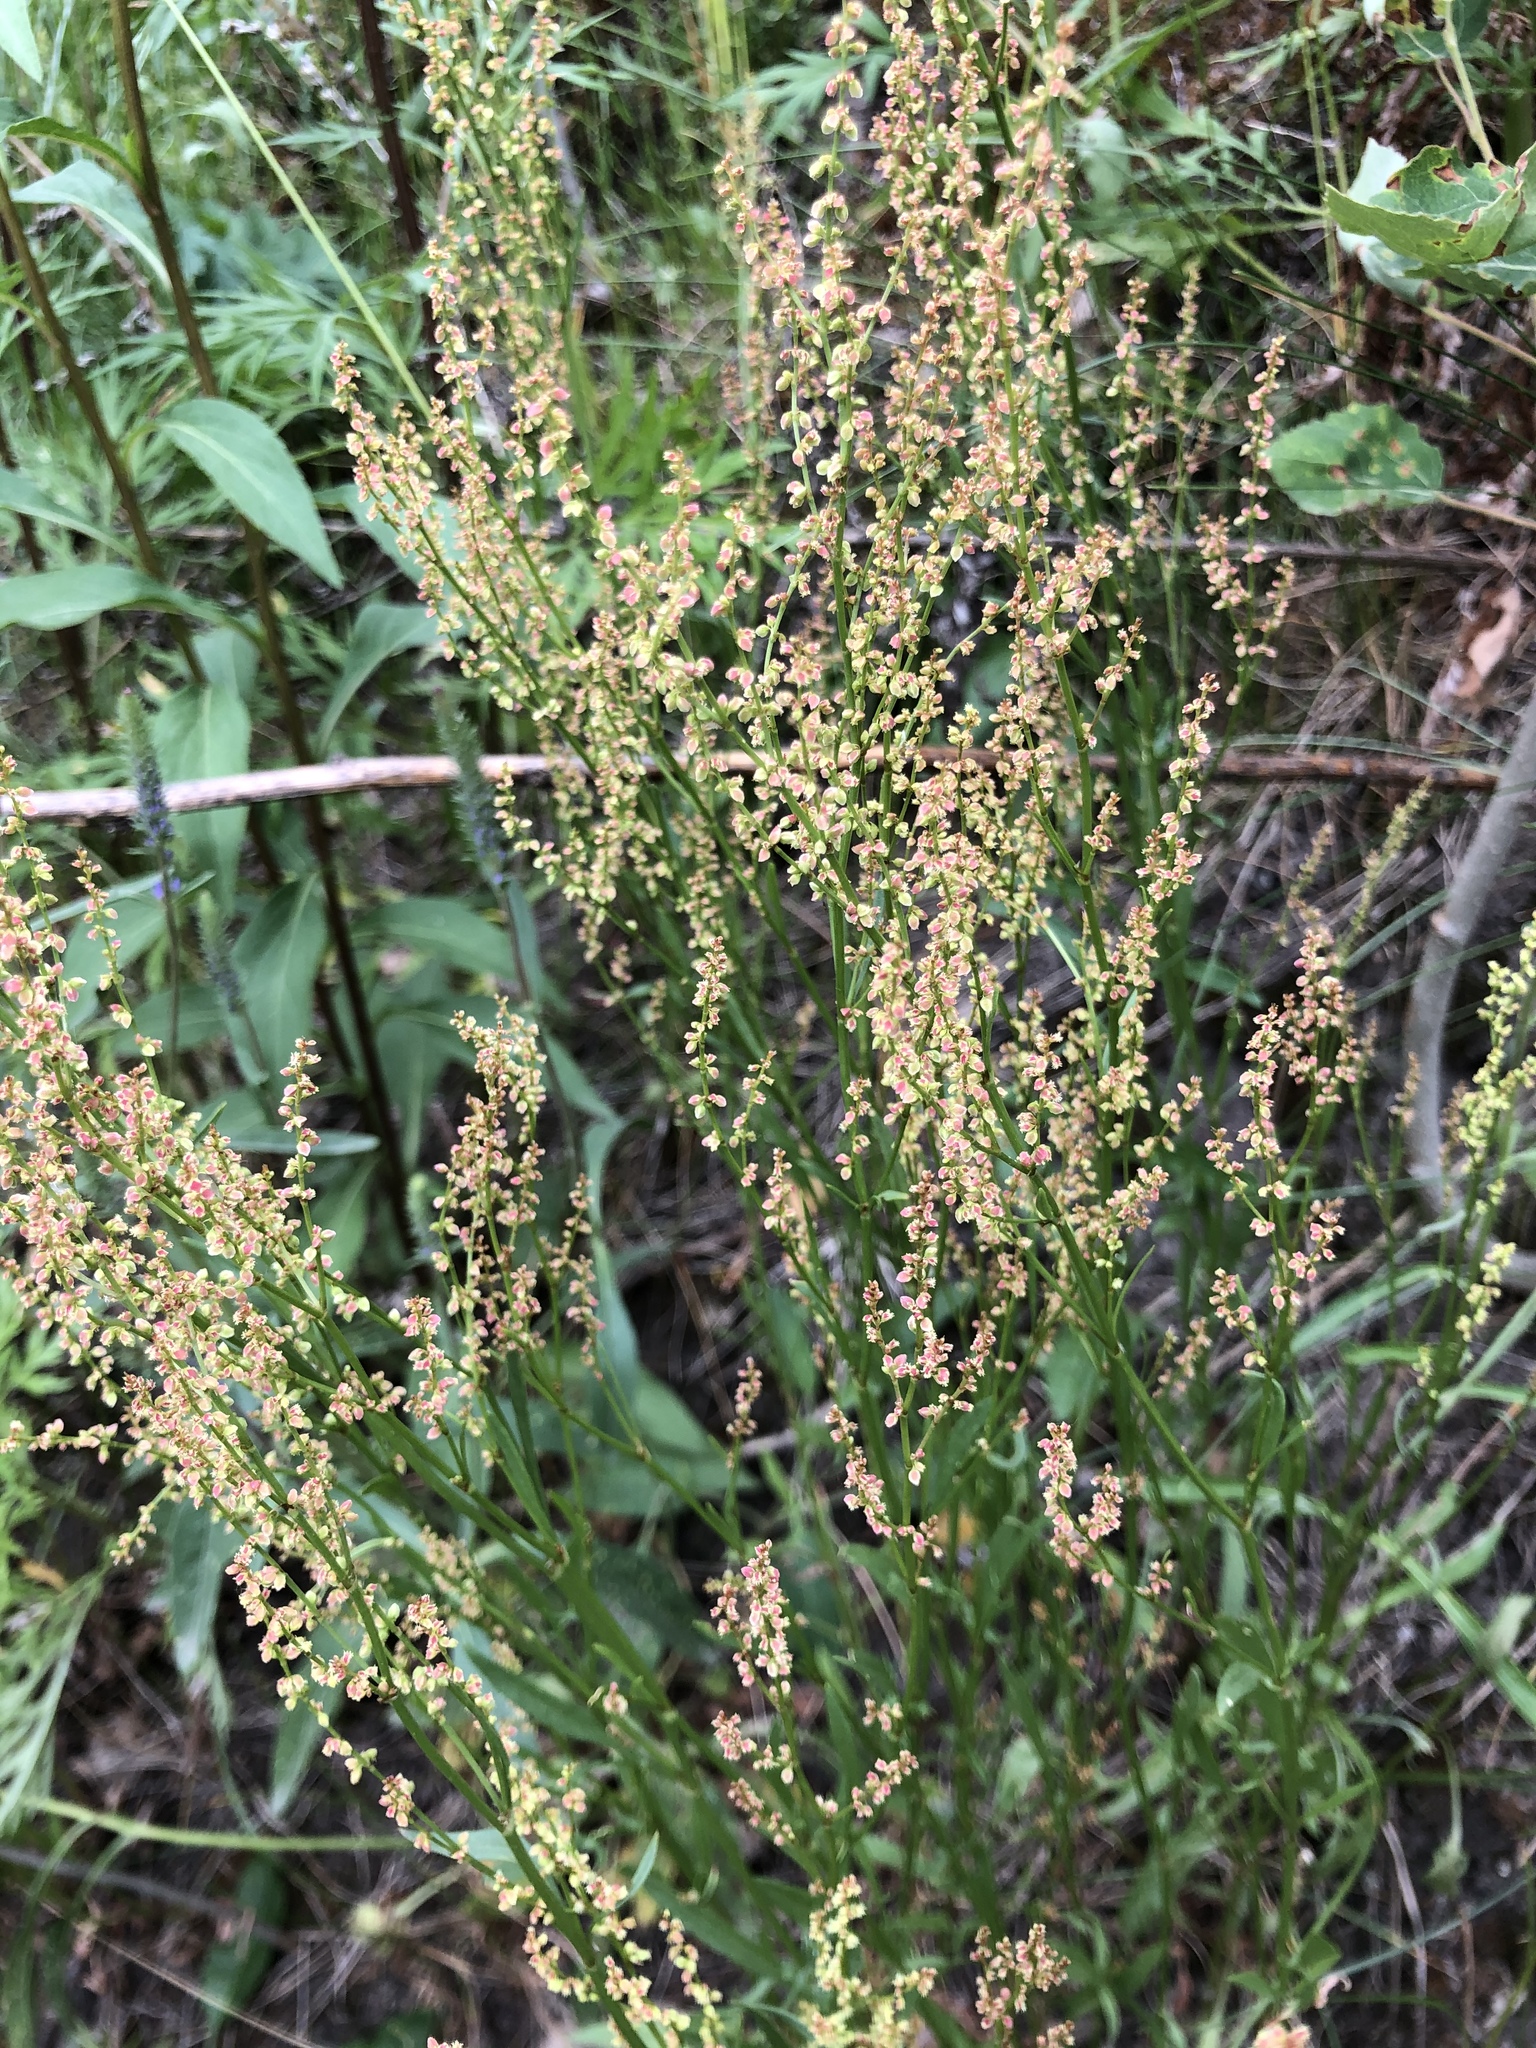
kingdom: Plantae
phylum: Tracheophyta
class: Magnoliopsida
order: Caryophyllales
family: Polygonaceae
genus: Rumex
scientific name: Rumex acetosella
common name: Common sheep sorrel
